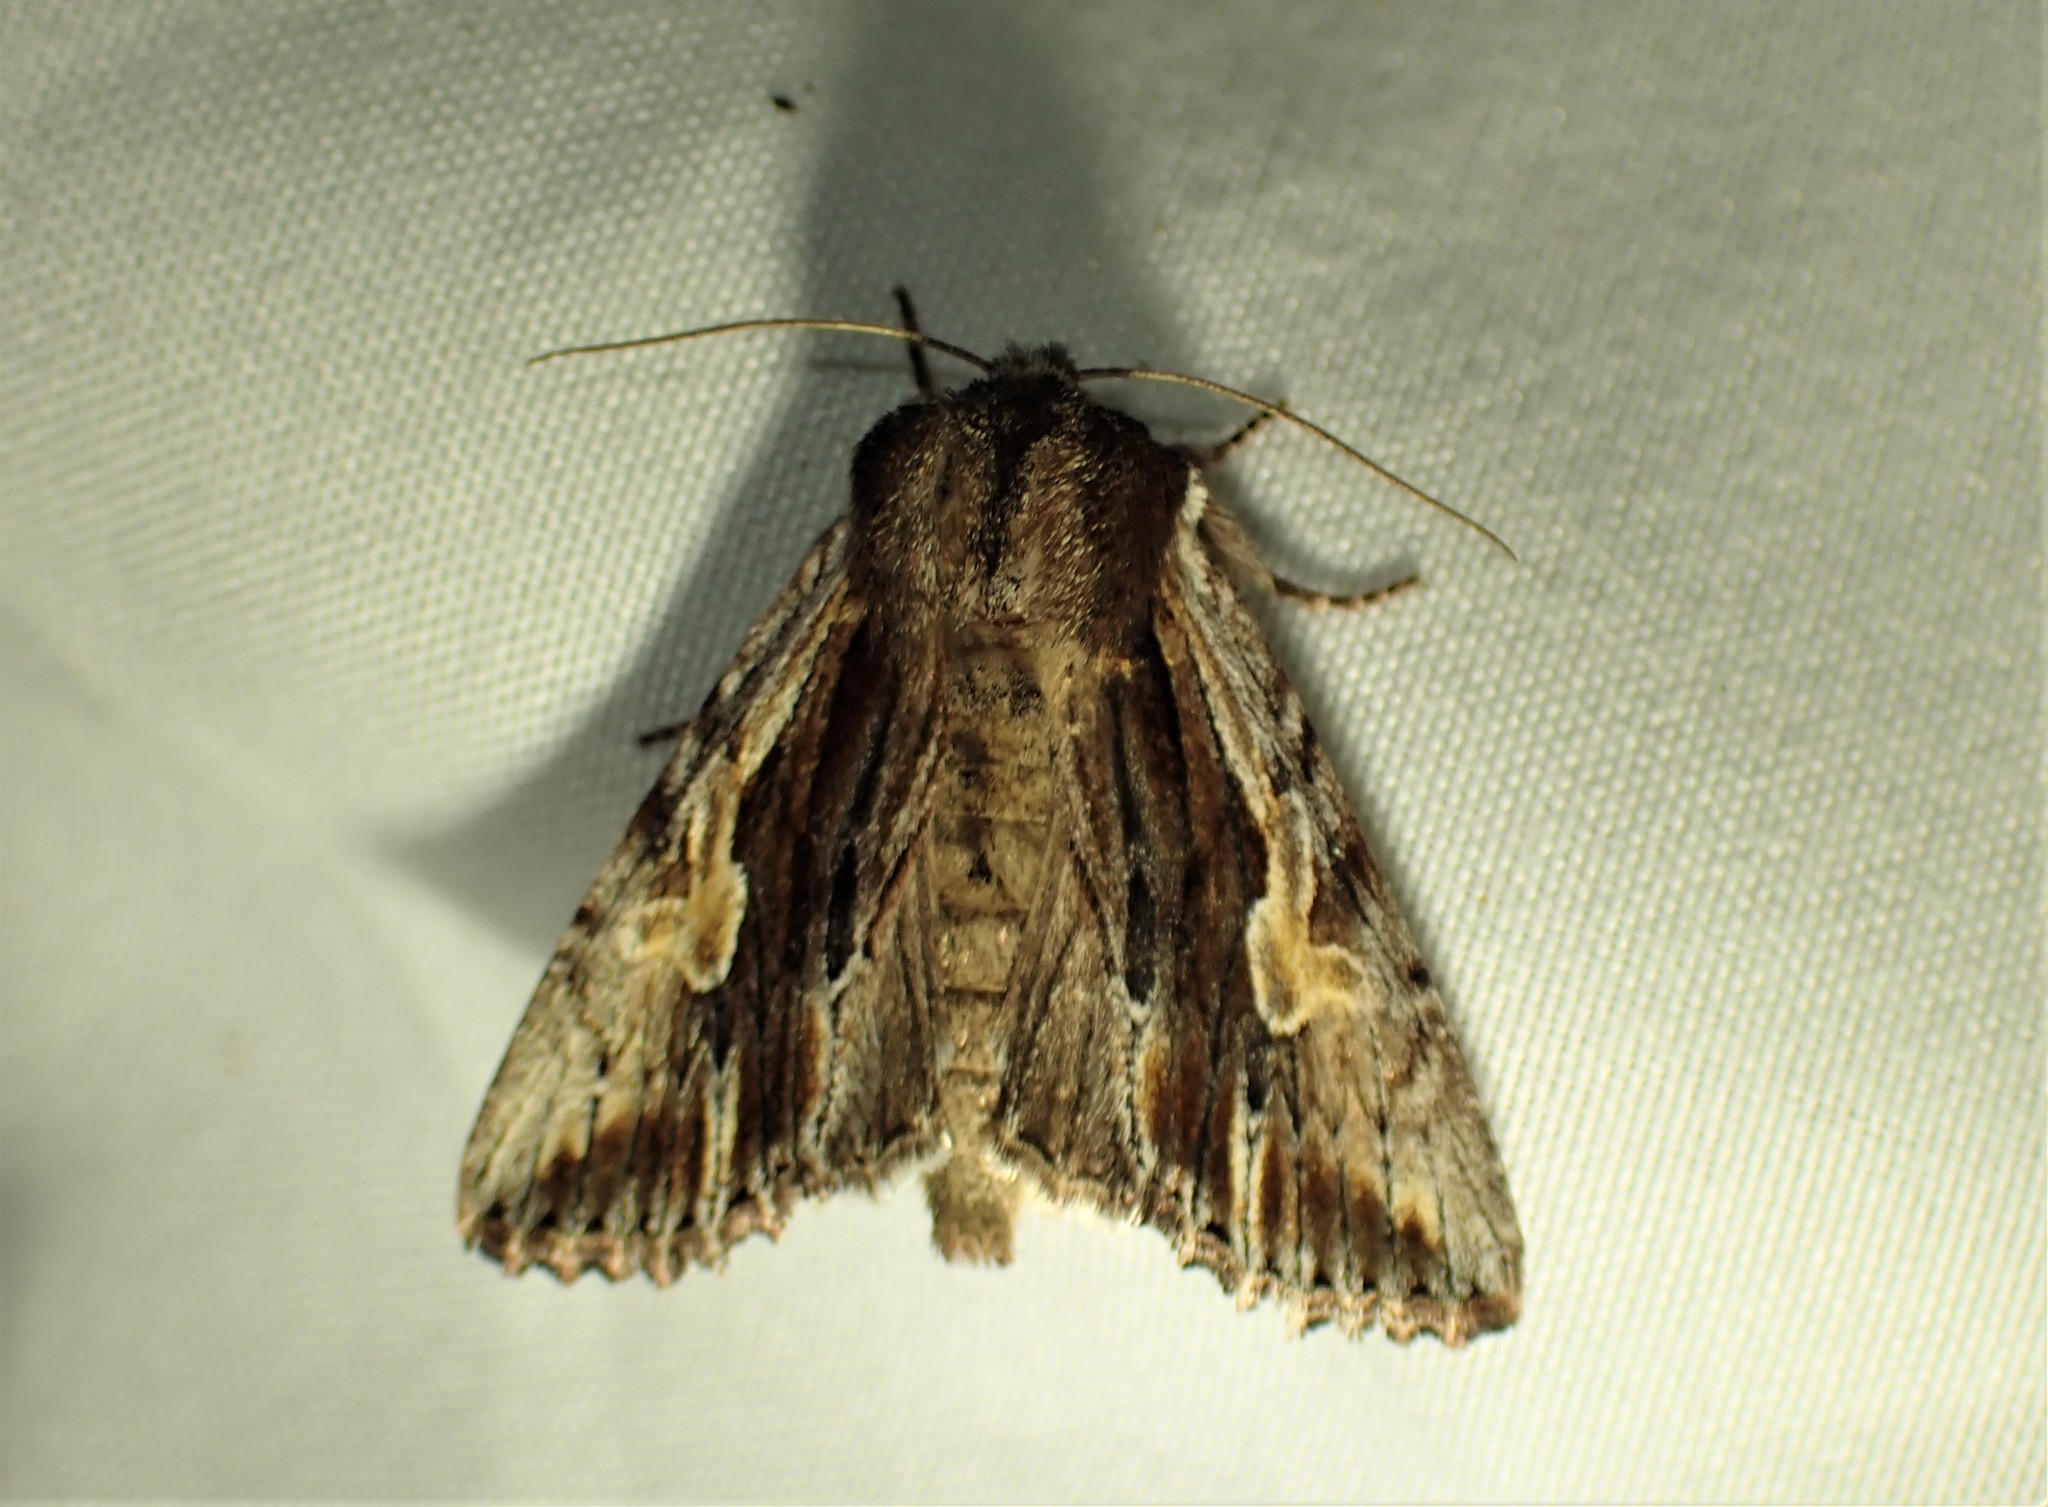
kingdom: Animalia
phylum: Arthropoda
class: Insecta
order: Lepidoptera
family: Noctuidae
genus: Achatia
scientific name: Achatia evicta
